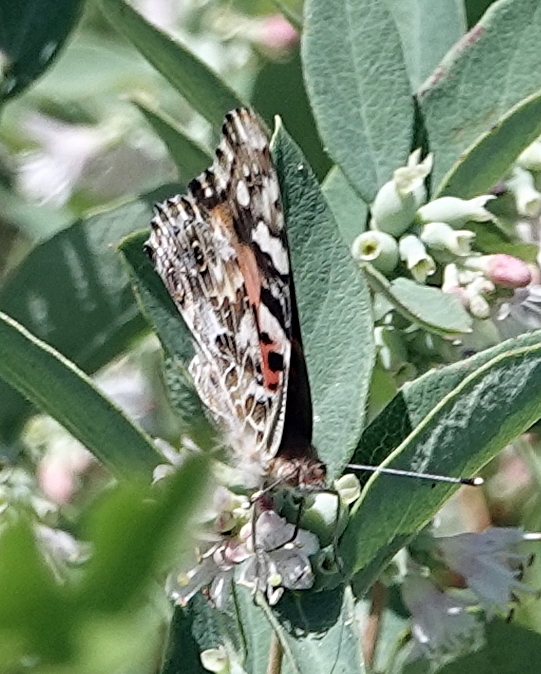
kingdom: Animalia
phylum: Arthropoda
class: Insecta
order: Lepidoptera
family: Nymphalidae
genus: Vanessa
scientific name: Vanessa cardui
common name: Painted lady
